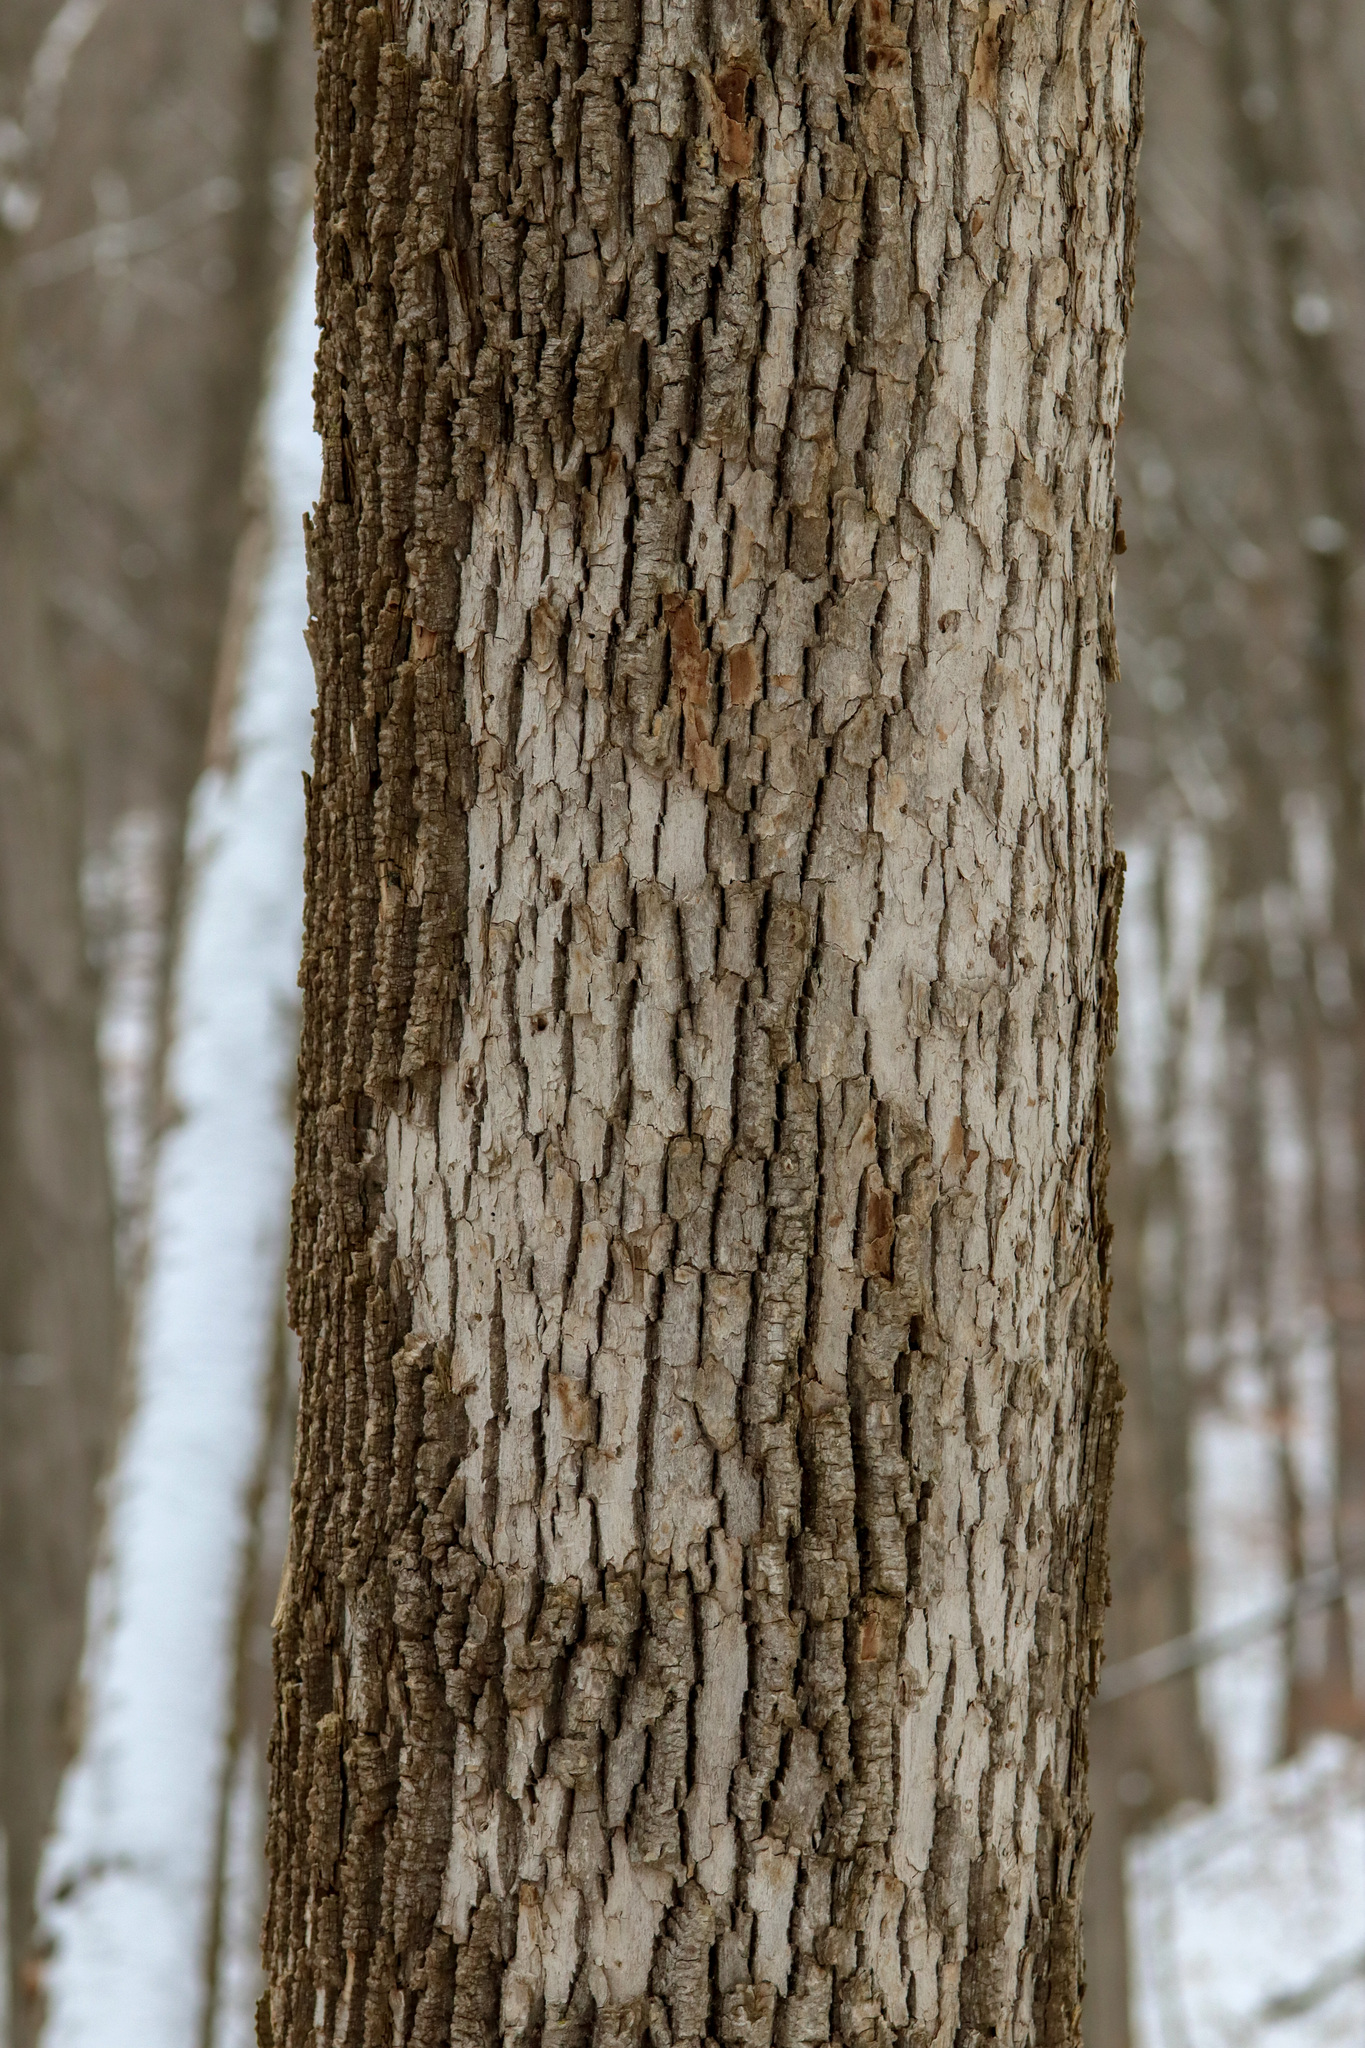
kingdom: Animalia
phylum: Arthropoda
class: Insecta
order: Coleoptera
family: Buprestidae
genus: Agrilus
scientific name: Agrilus planipennis
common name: Emerald ash borer
